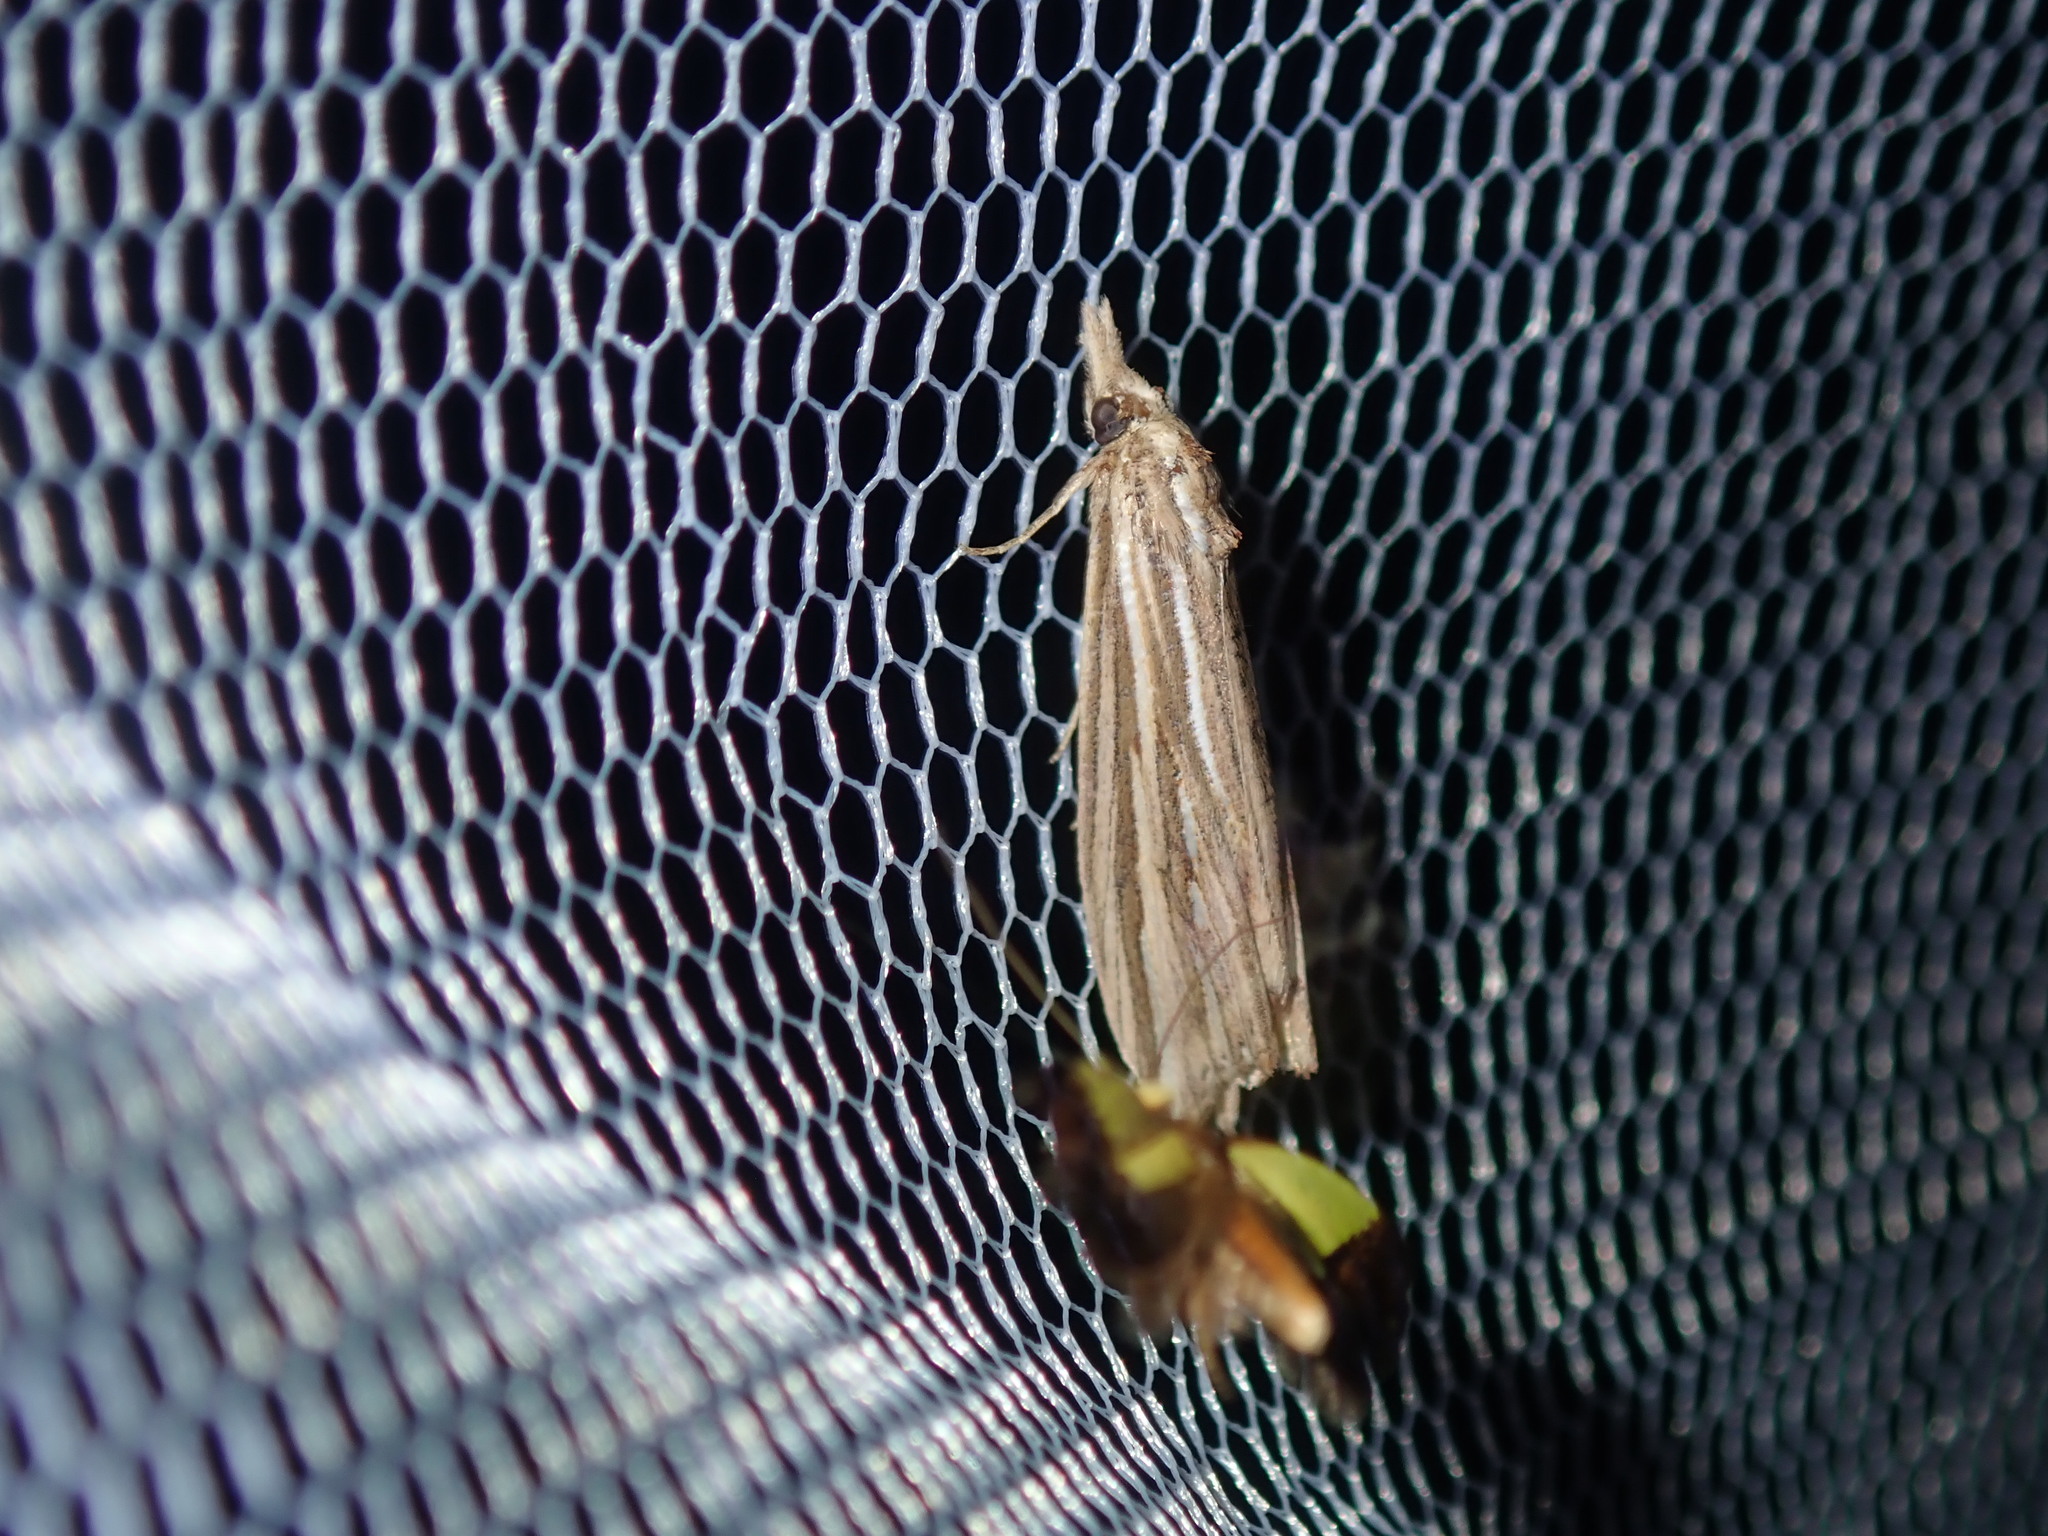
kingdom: Animalia
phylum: Arthropoda
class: Insecta
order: Lepidoptera
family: Erebidae
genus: Meyrickella
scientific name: Meyrickella ruptellus
